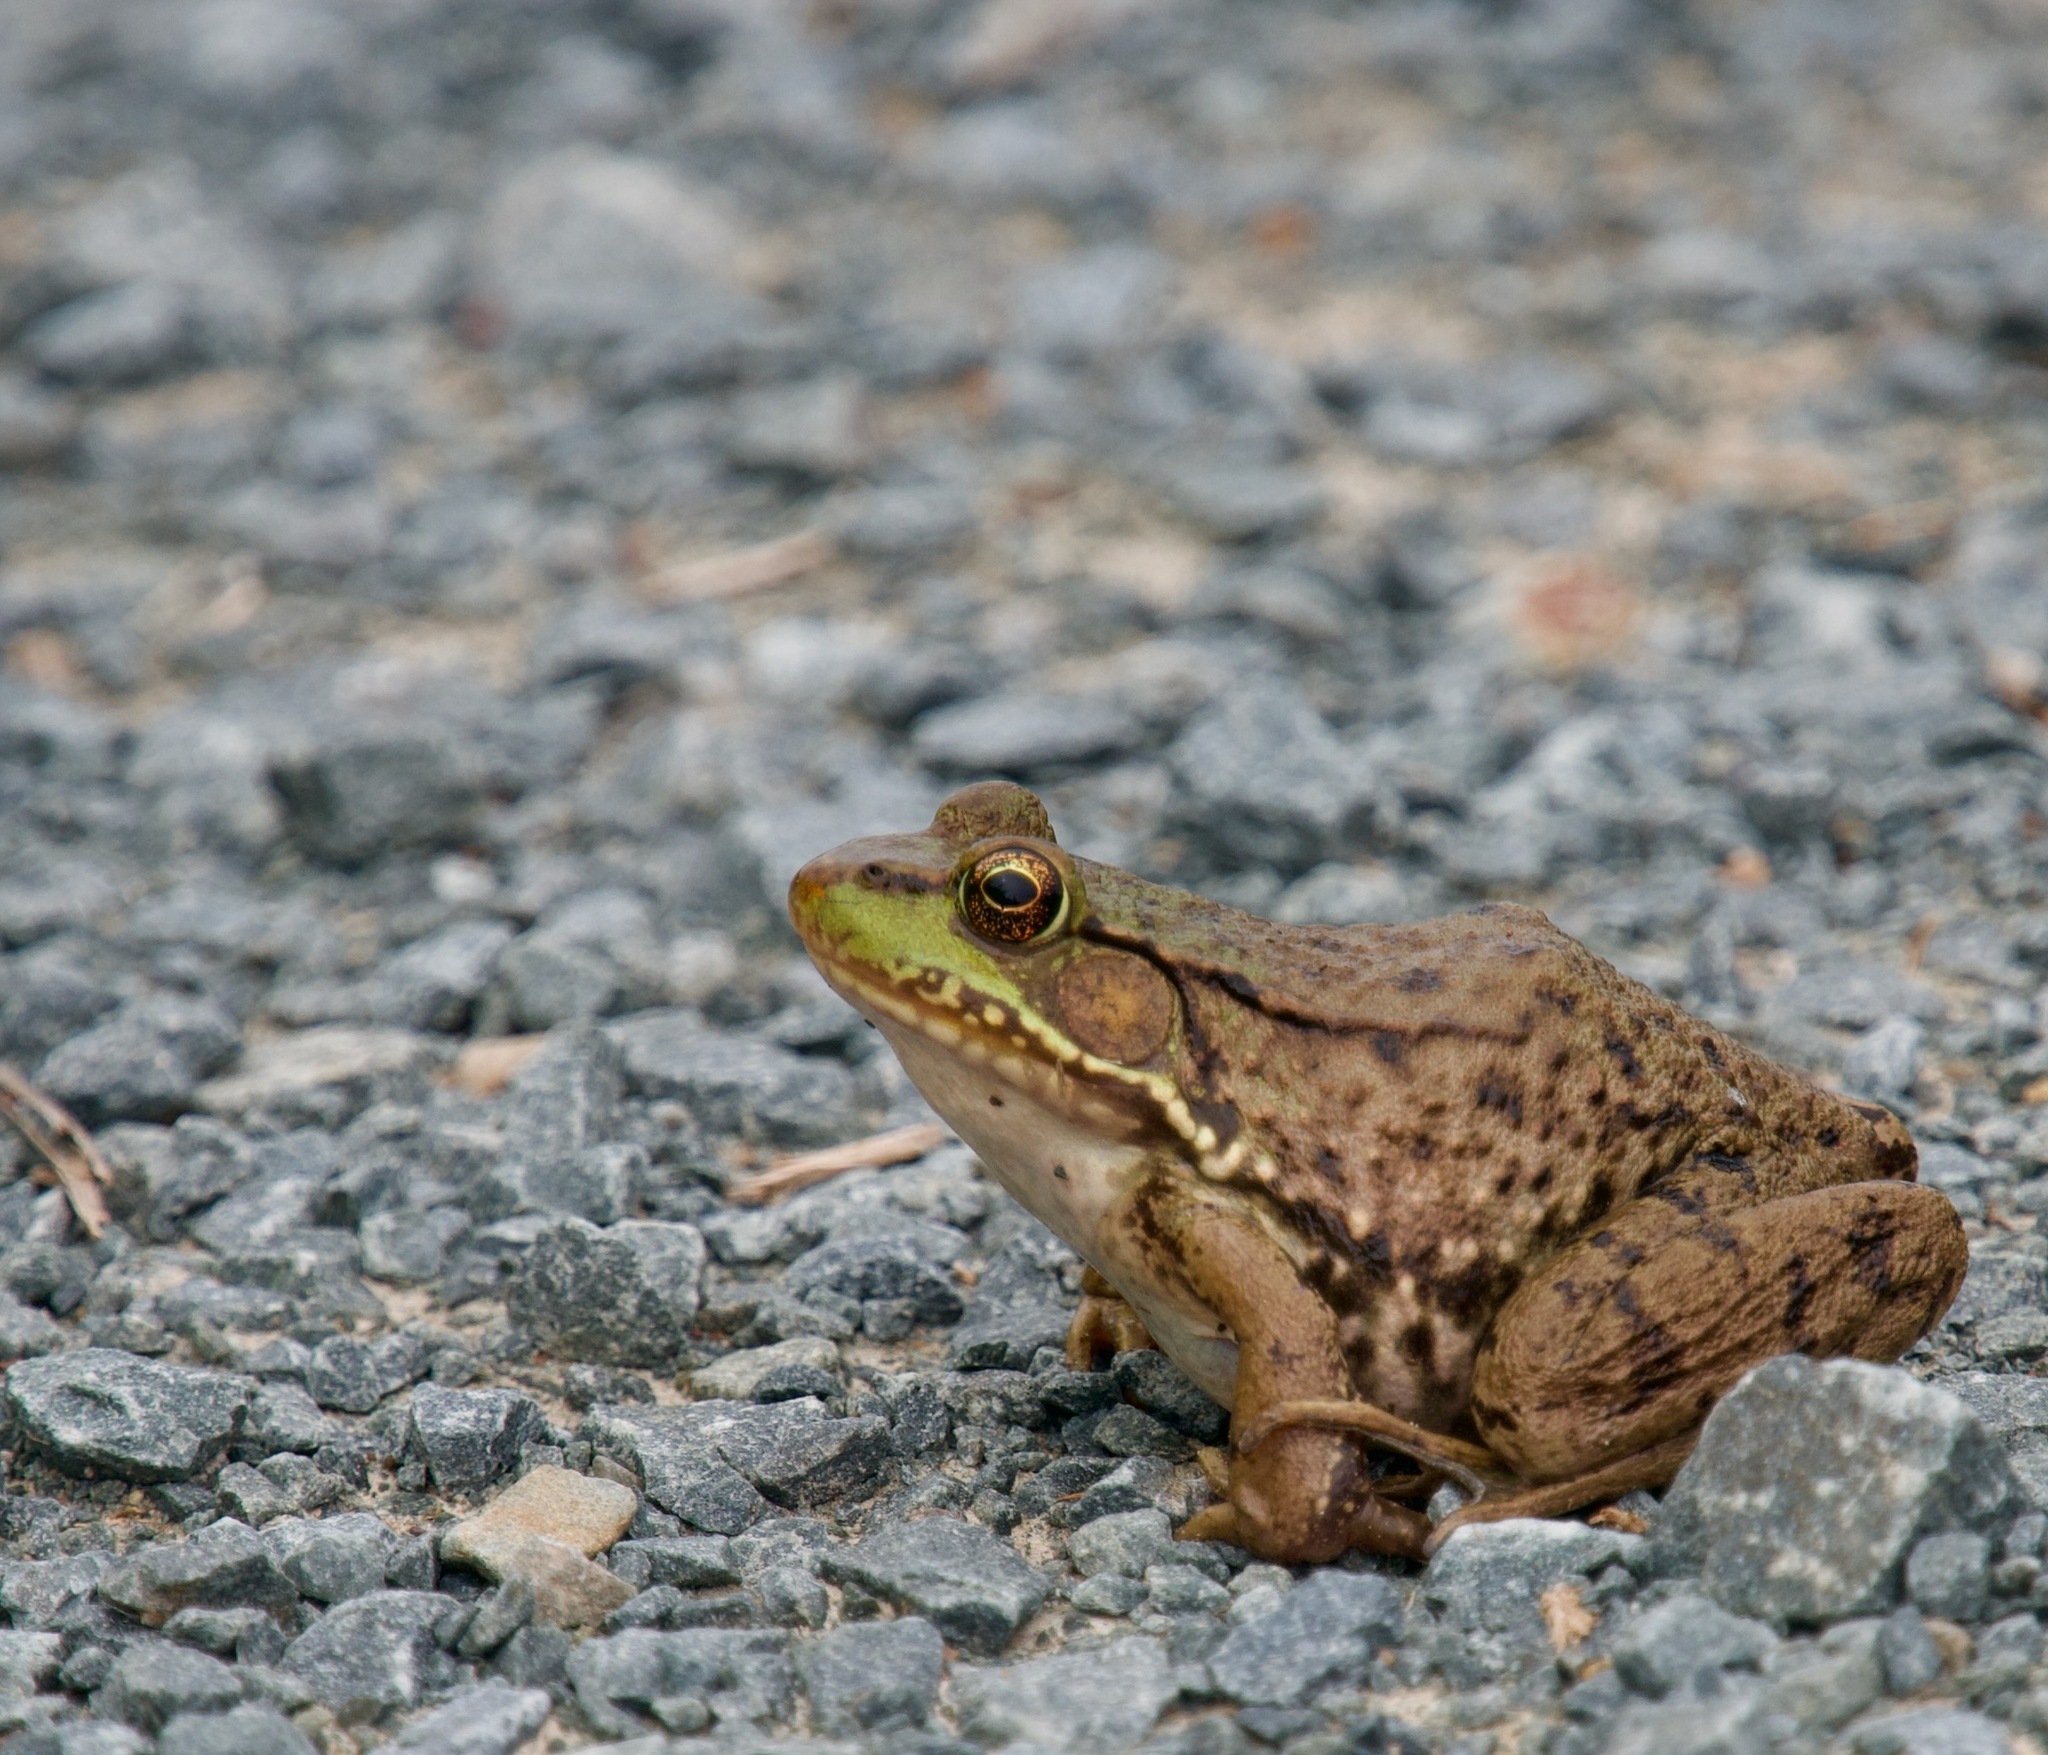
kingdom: Animalia
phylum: Chordata
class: Amphibia
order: Anura
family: Ranidae
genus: Lithobates
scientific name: Lithobates clamitans
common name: Green frog
